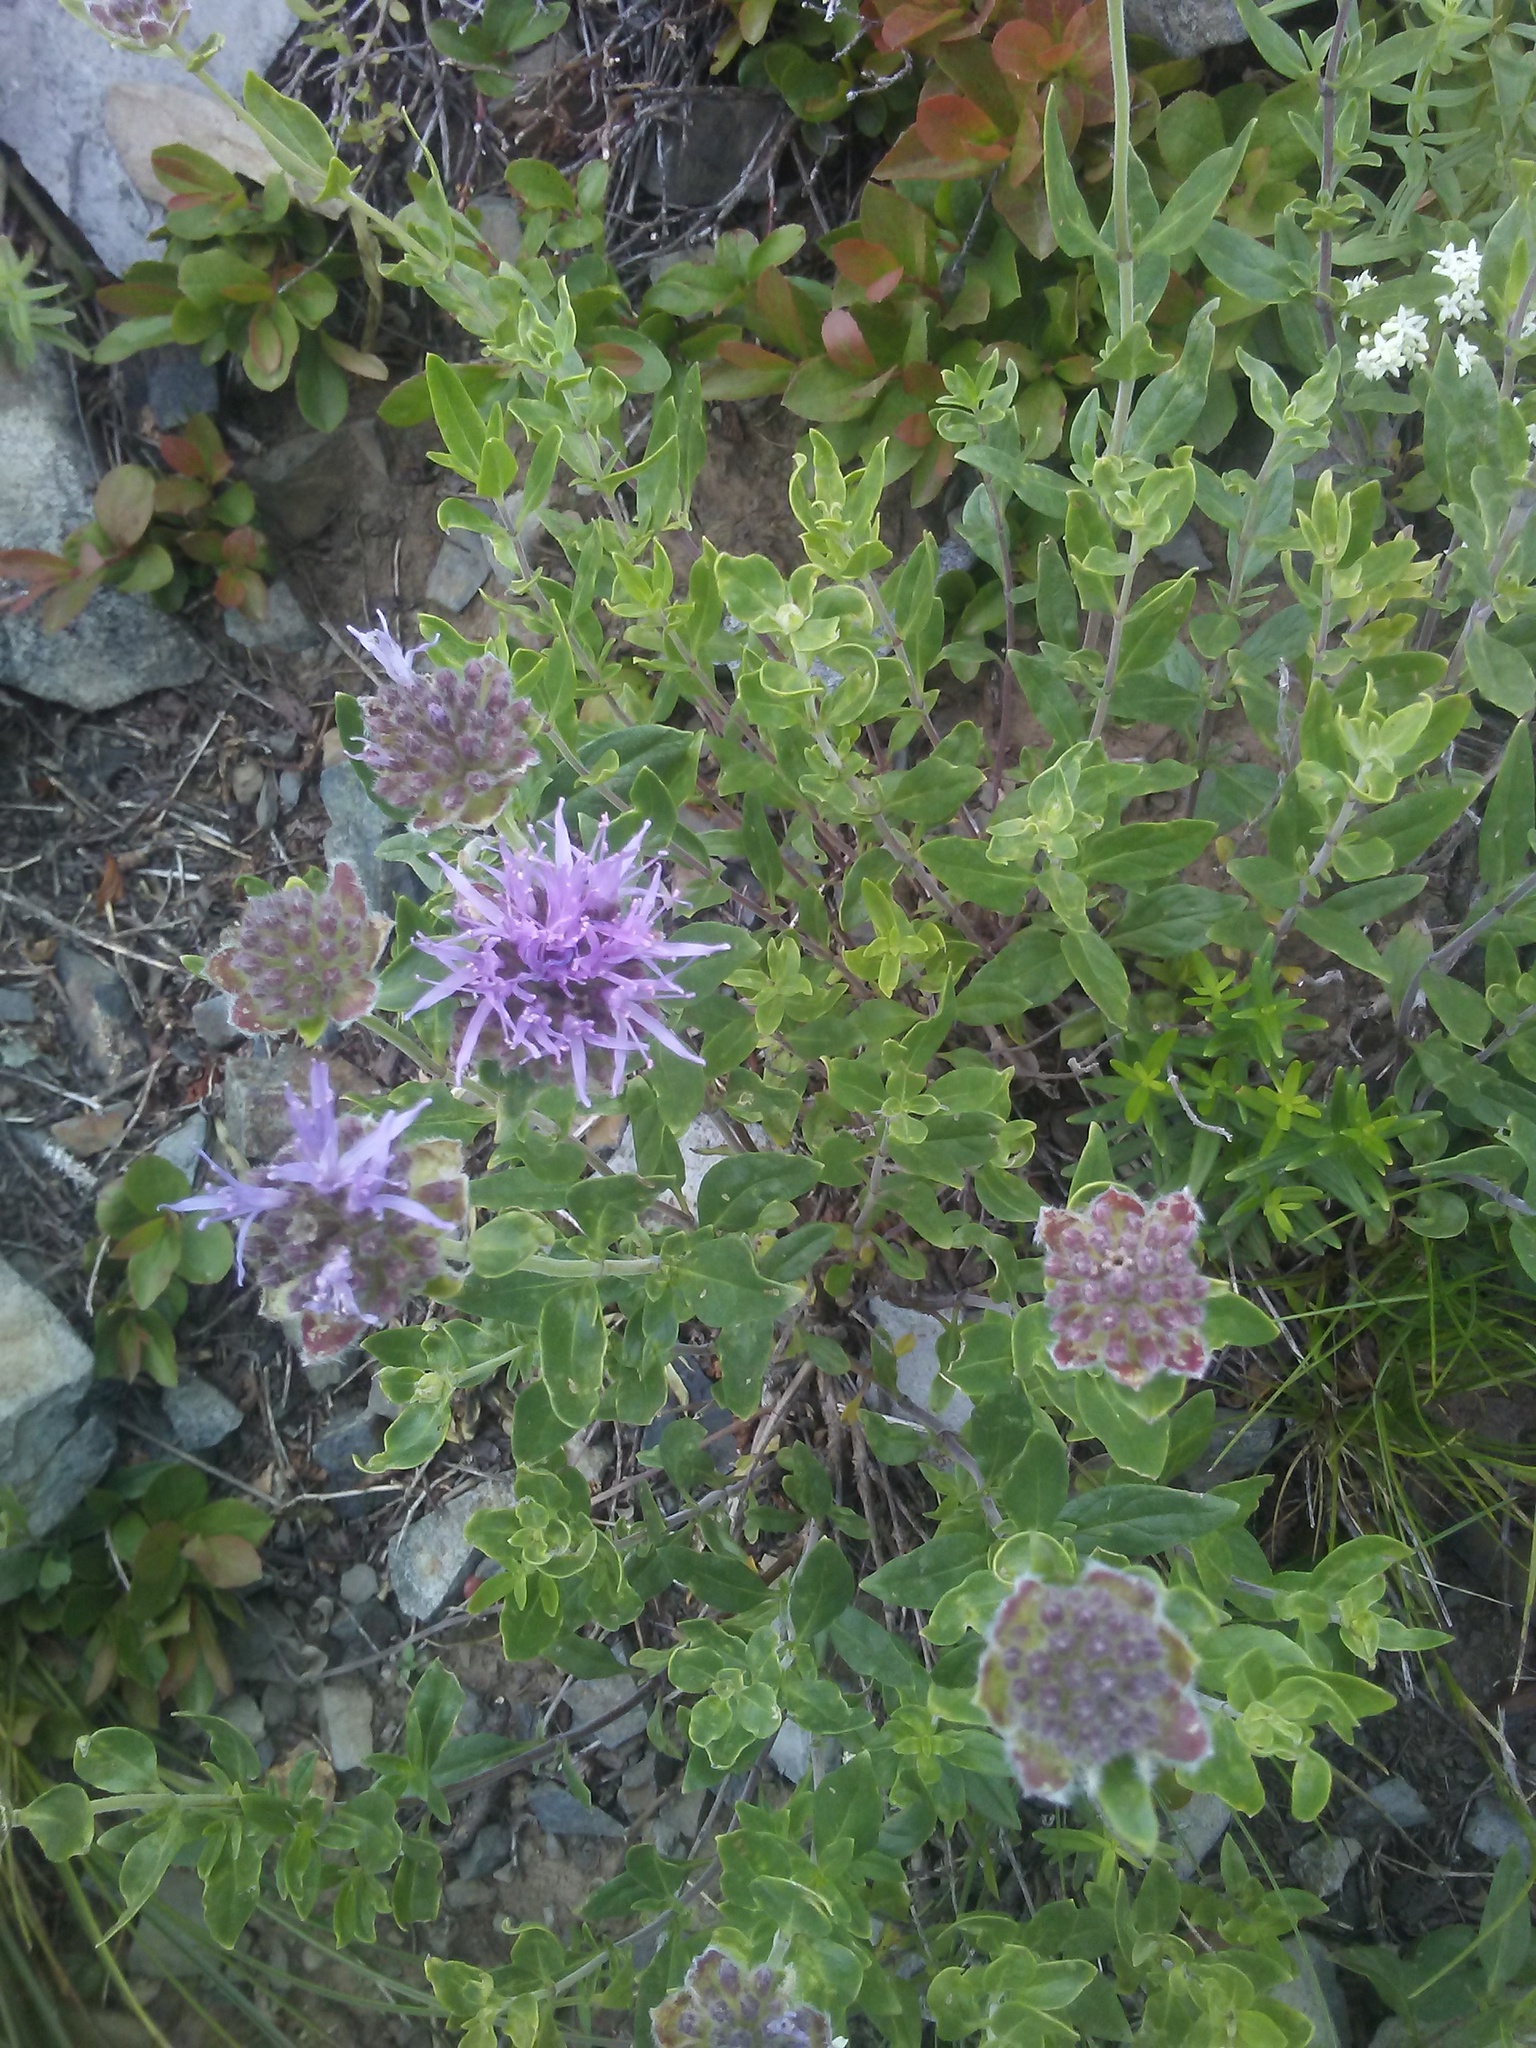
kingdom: Plantae
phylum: Tracheophyta
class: Magnoliopsida
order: Lamiales
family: Lamiaceae
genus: Monardella
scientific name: Monardella odoratissima
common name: Pacific monardella
